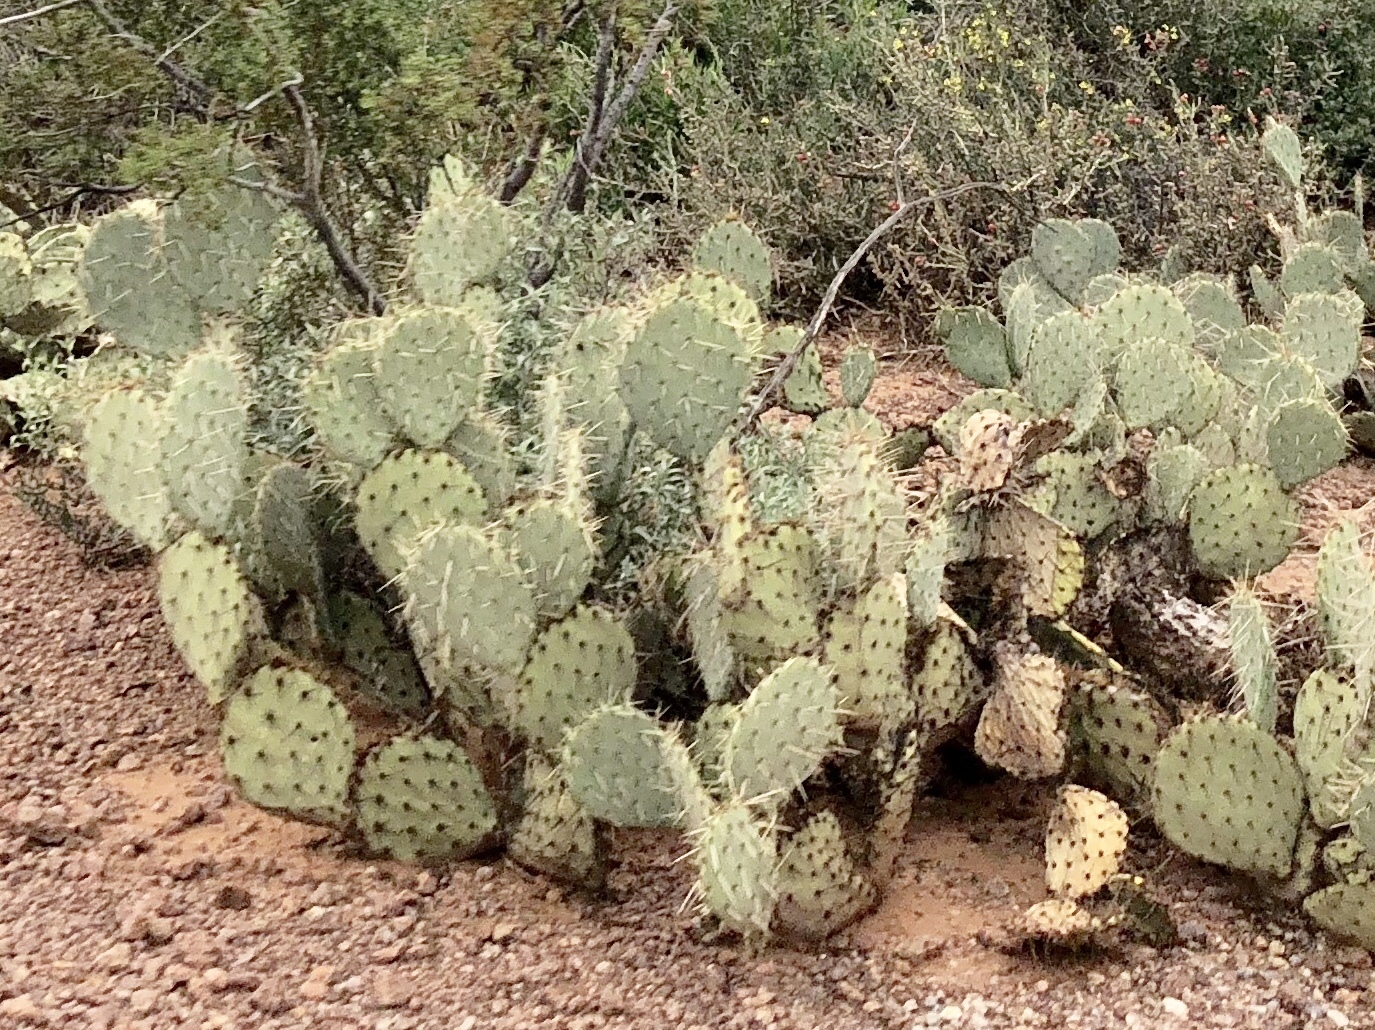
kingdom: Plantae
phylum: Tracheophyta
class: Magnoliopsida
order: Caryophyllales
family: Cactaceae
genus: Opuntia
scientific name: Opuntia engelmannii
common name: Cactus-apple
